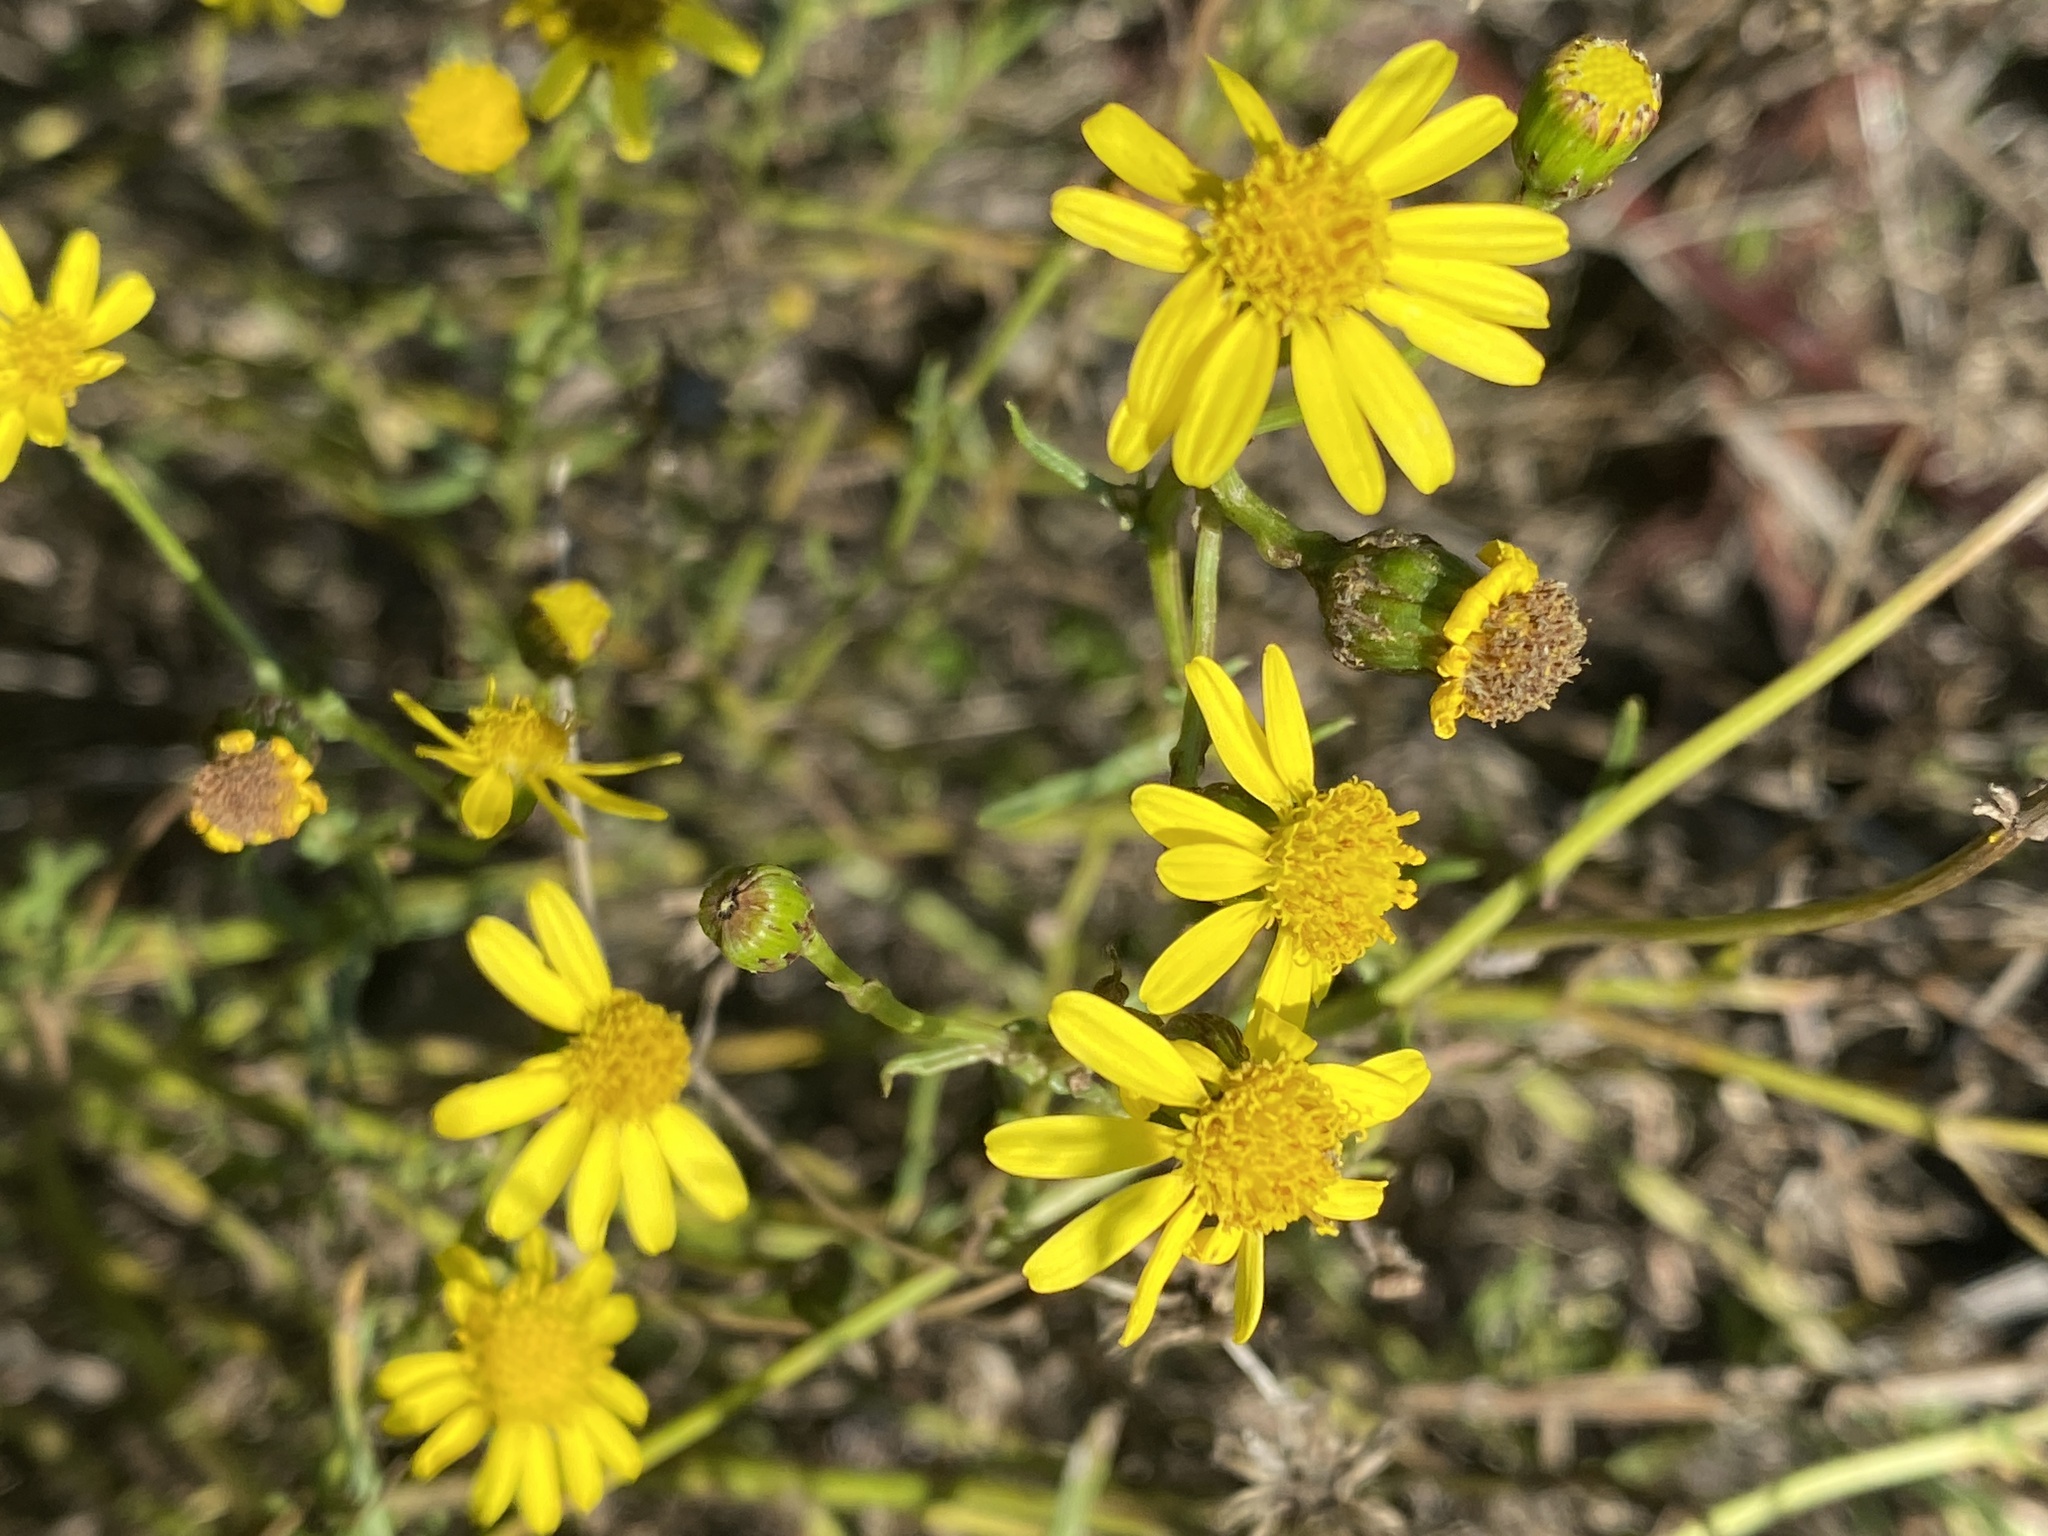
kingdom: Plantae
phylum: Tracheophyta
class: Magnoliopsida
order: Asterales
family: Asteraceae
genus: Senecio
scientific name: Senecio inaequidens
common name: Narrow-leaved ragwort
